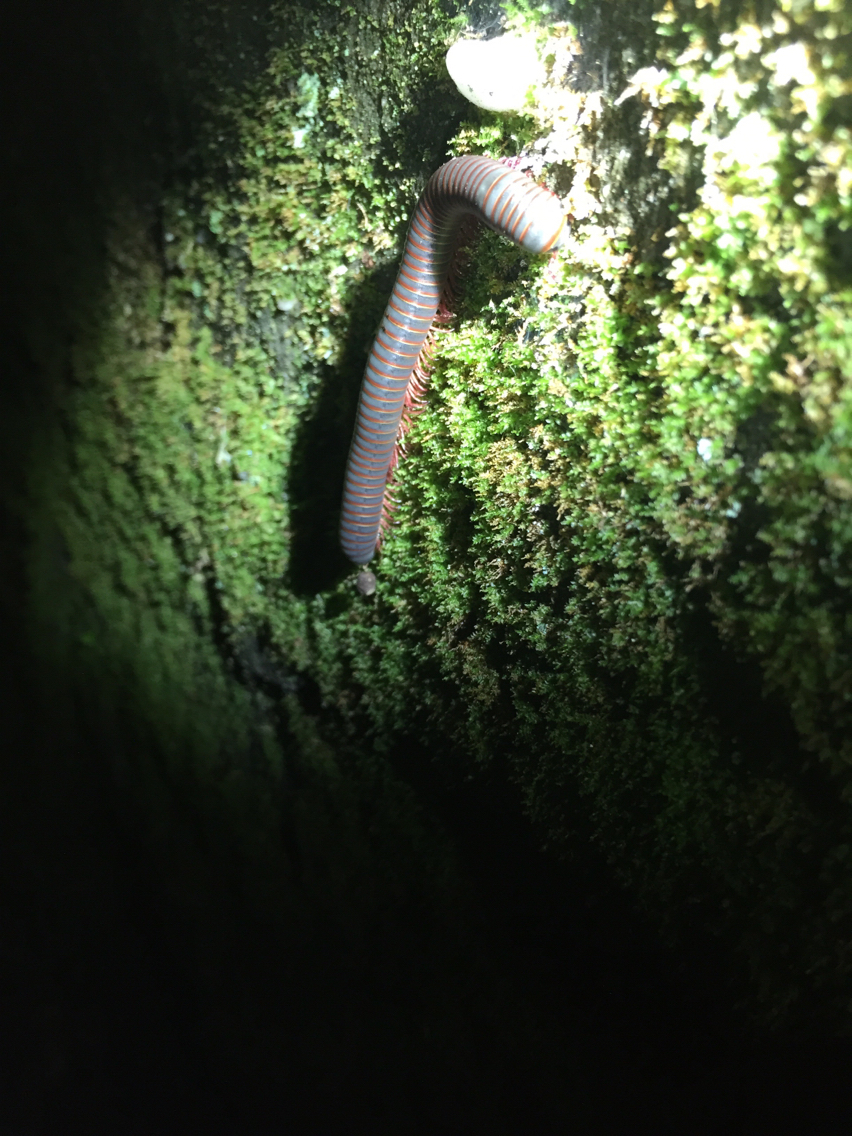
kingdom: Animalia
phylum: Arthropoda
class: Diplopoda
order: Spirobolida
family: Spirobolidae
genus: Narceus
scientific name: Narceus
